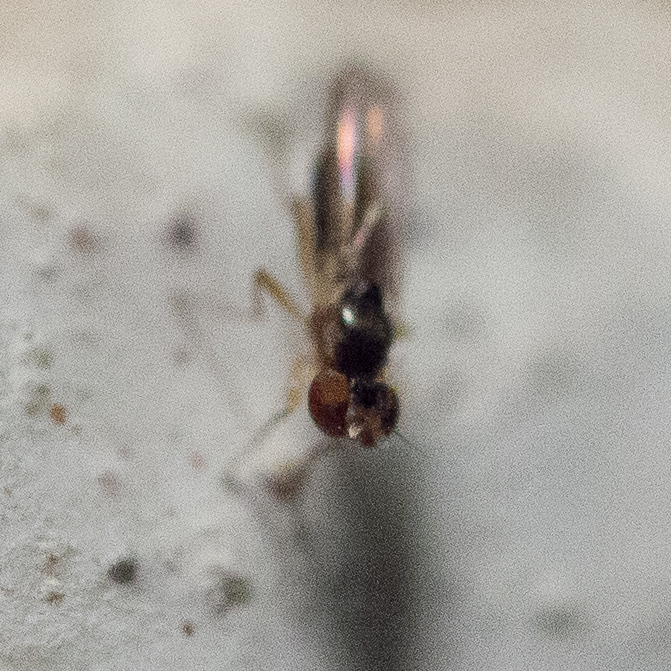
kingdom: Animalia
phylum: Arthropoda
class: Insecta
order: Diptera
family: Anthomyzidae
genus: Mumetopia
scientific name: Mumetopia occipitalis
